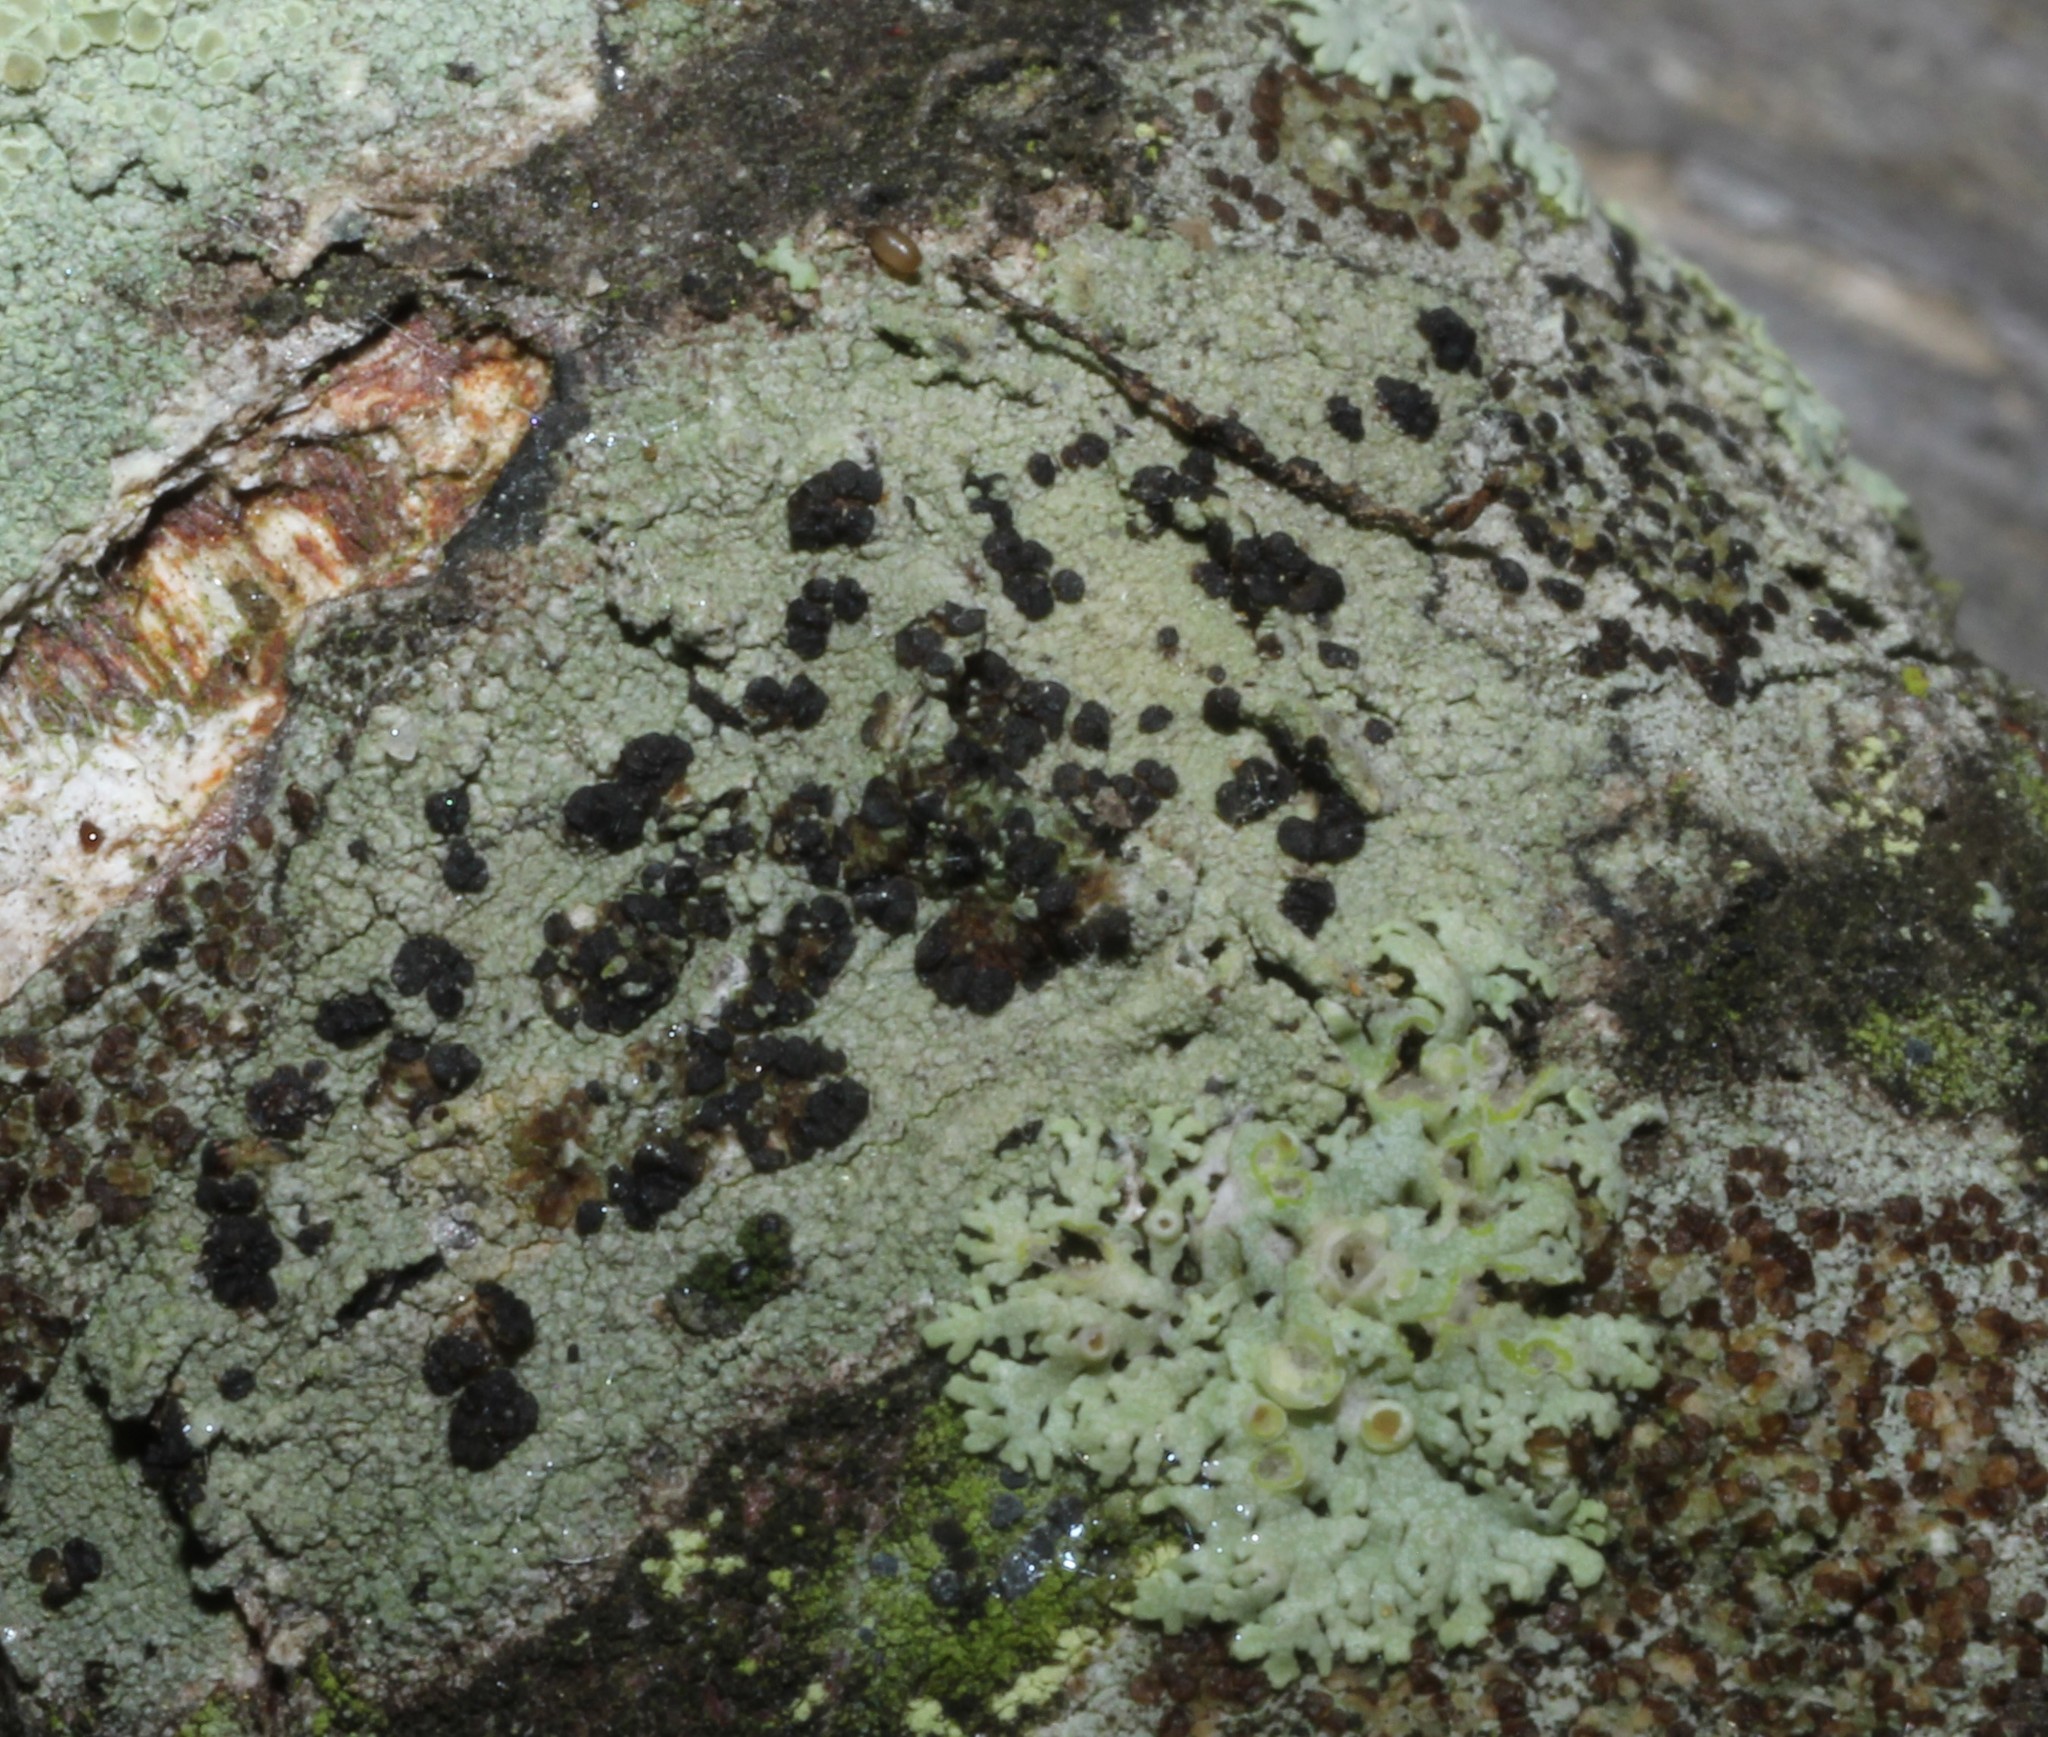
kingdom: Fungi
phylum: Ascomycota
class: Lecanoromycetes
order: Lecanorales
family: Lecanoraceae
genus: Traponora
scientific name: Traponora varians
